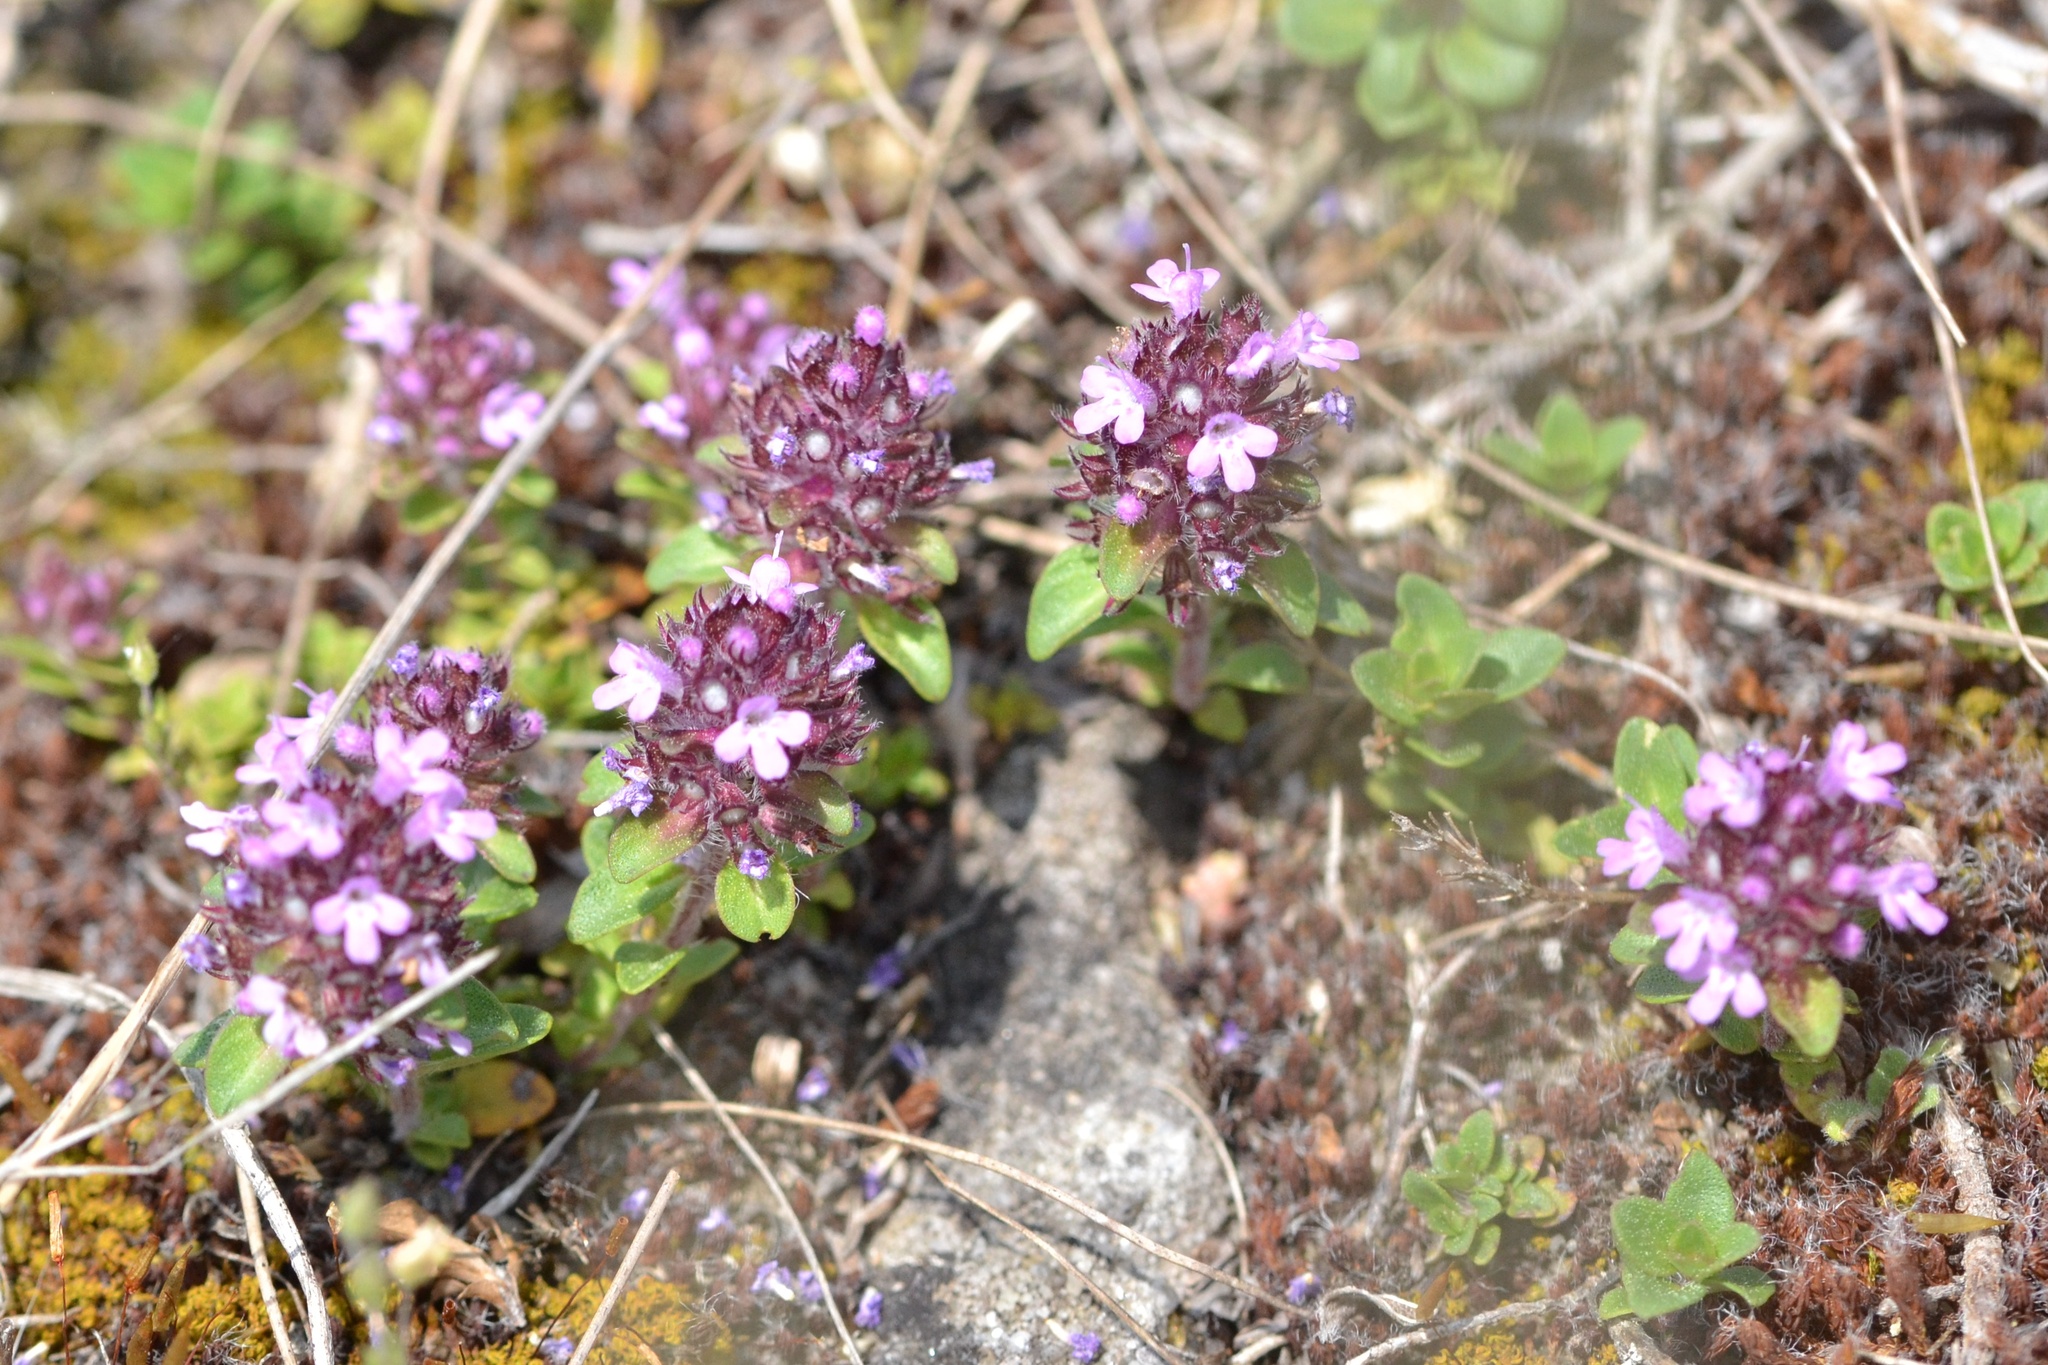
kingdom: Plantae
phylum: Tracheophyta
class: Magnoliopsida
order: Lamiales
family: Lamiaceae
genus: Thymus
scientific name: Thymus praecox
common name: Wild thyme
